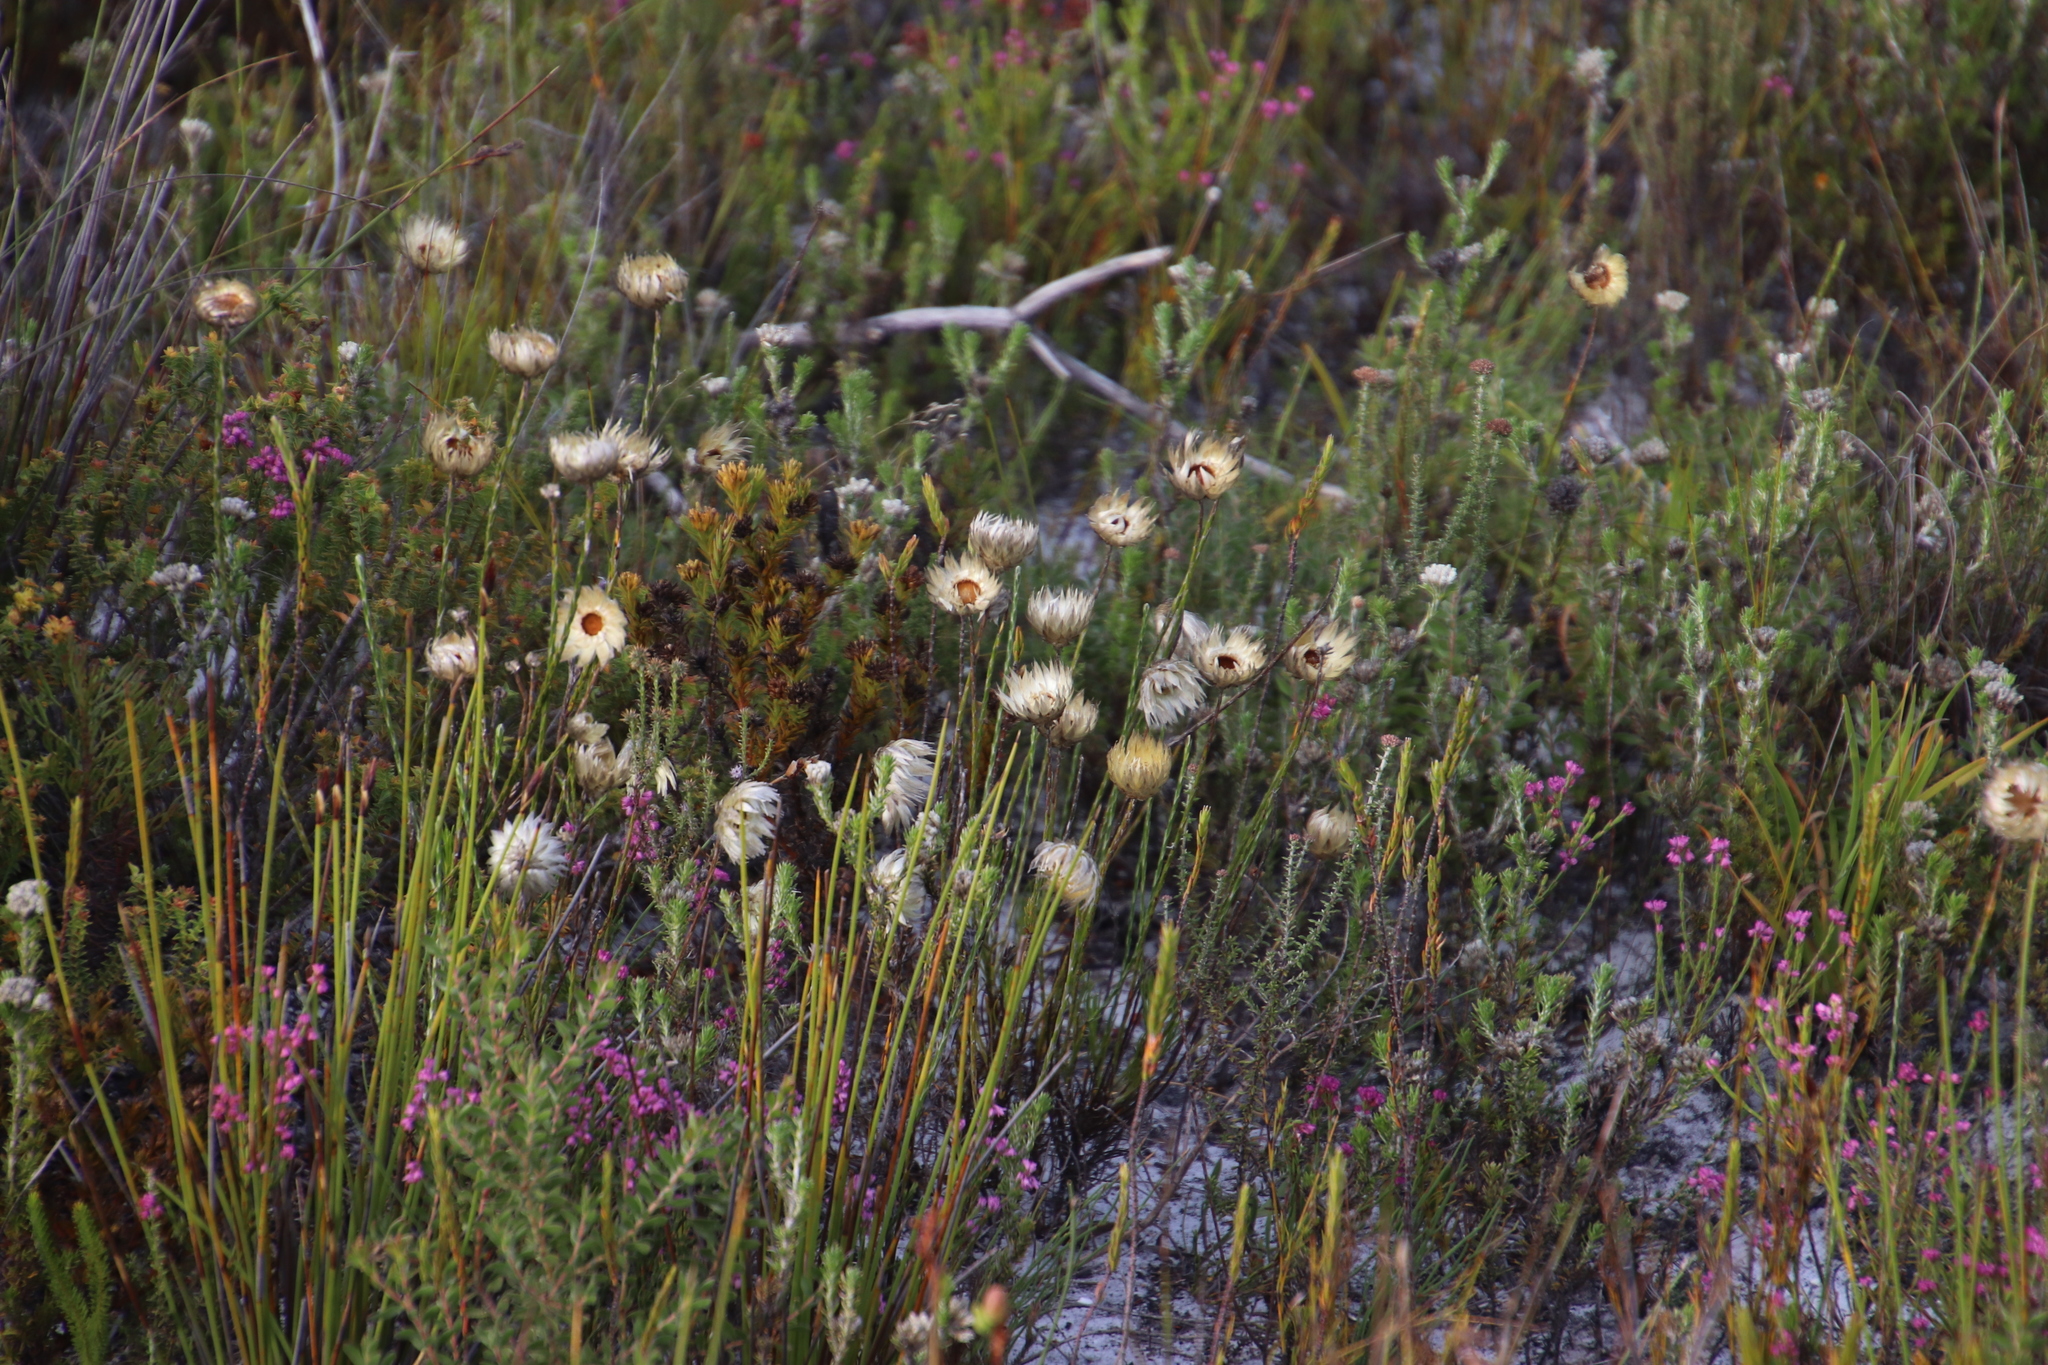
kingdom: Plantae
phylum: Tracheophyta
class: Magnoliopsida
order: Asterales
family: Asteraceae
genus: Edmondia
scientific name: Edmondia sesamoides
